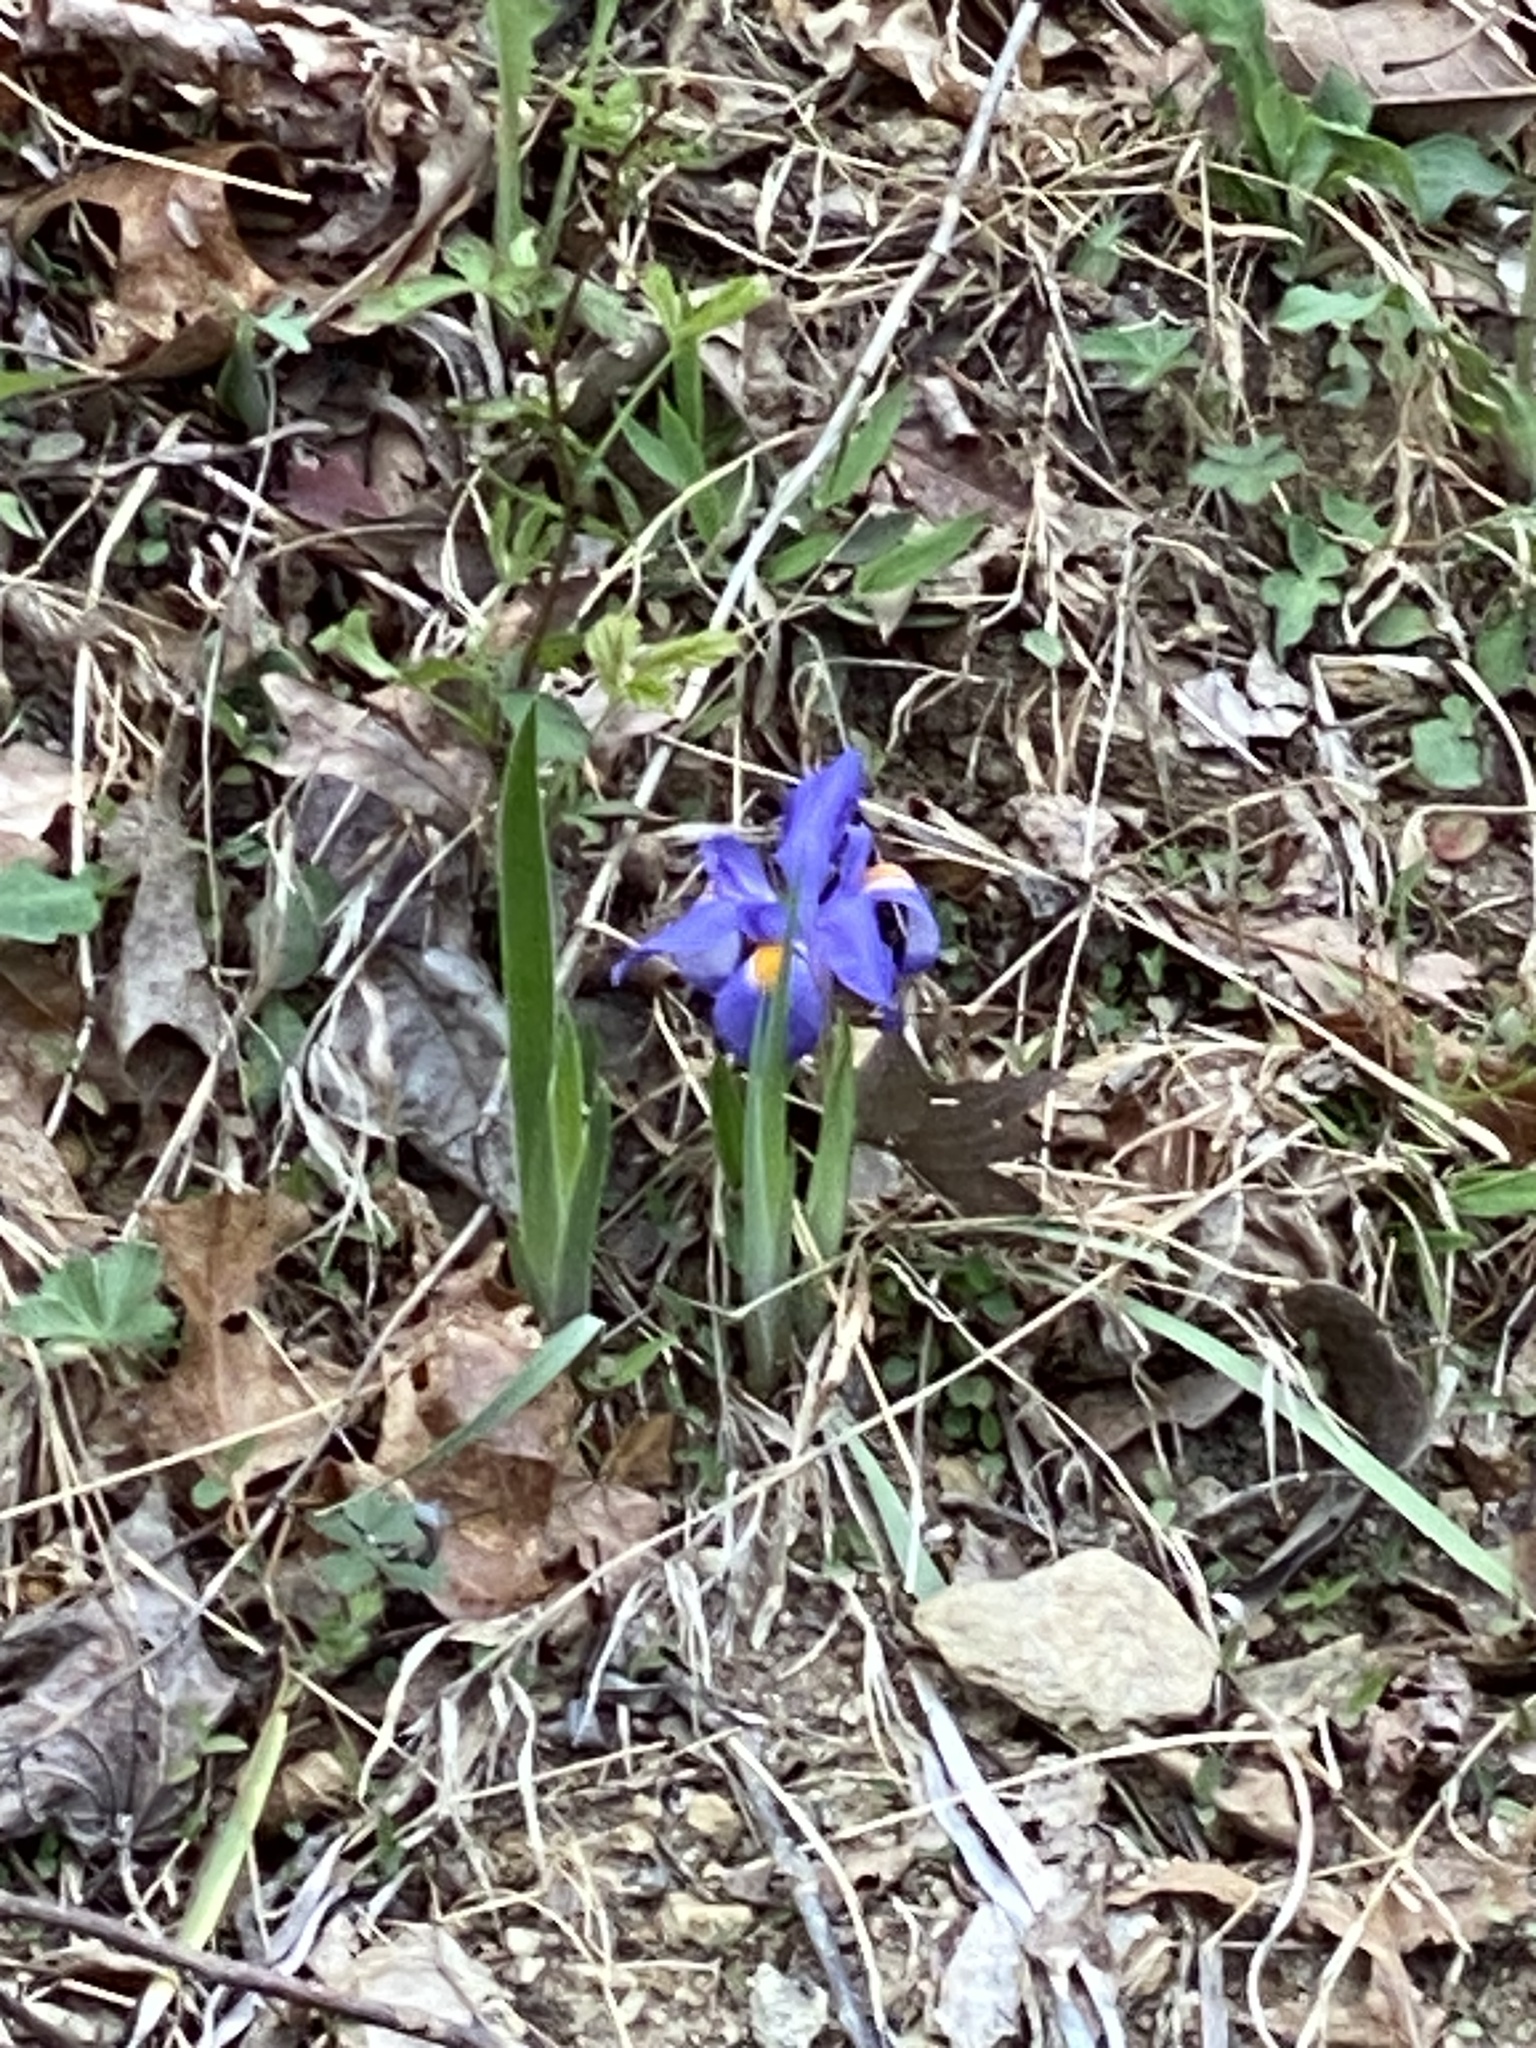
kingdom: Plantae
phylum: Tracheophyta
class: Liliopsida
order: Asparagales
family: Iridaceae
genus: Iris
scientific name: Iris verna
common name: Dwarf iris
